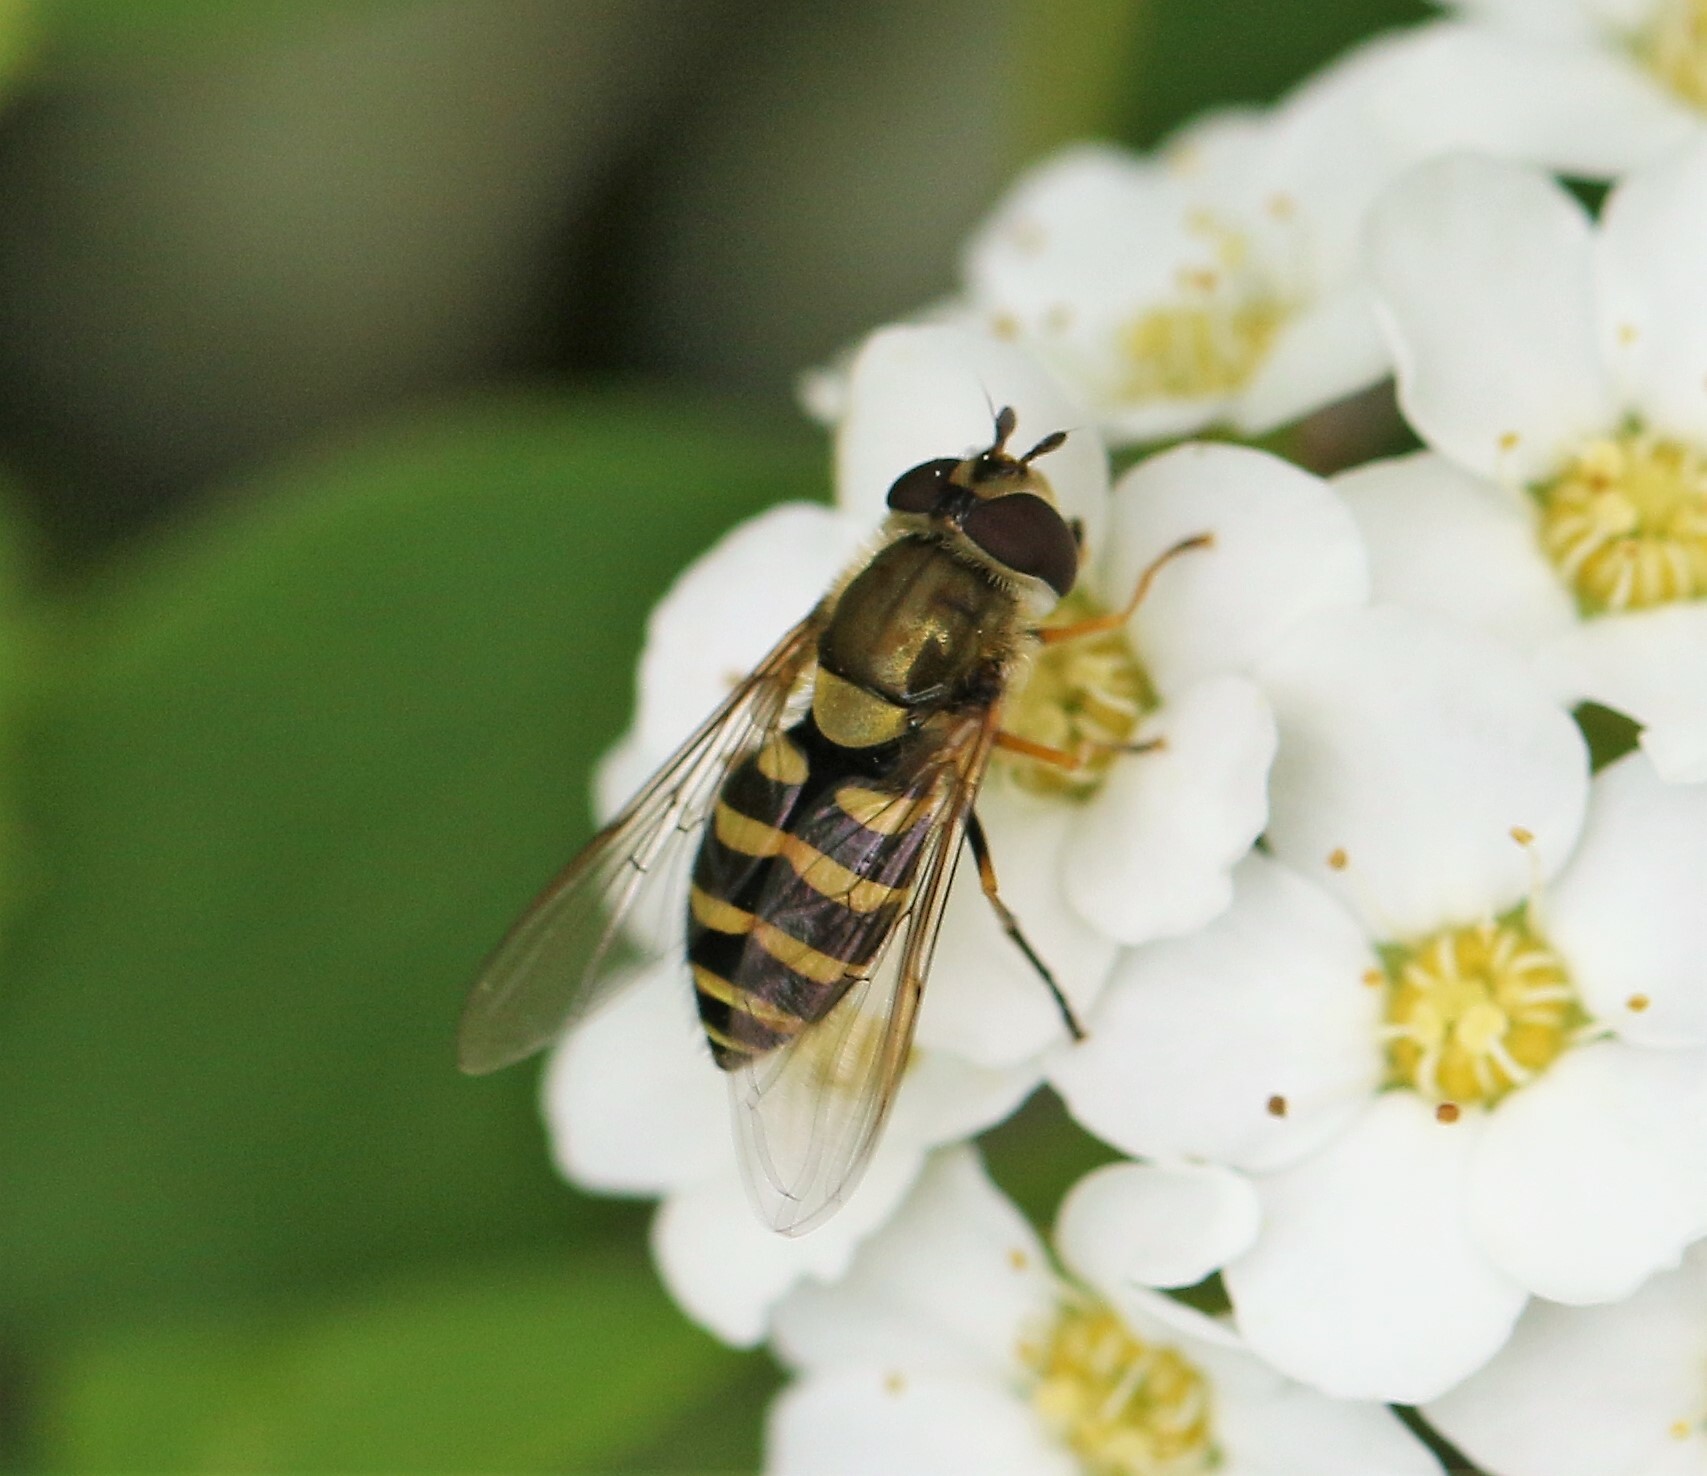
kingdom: Animalia
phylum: Arthropoda
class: Insecta
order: Diptera
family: Syrphidae
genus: Syrphus
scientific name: Syrphus
